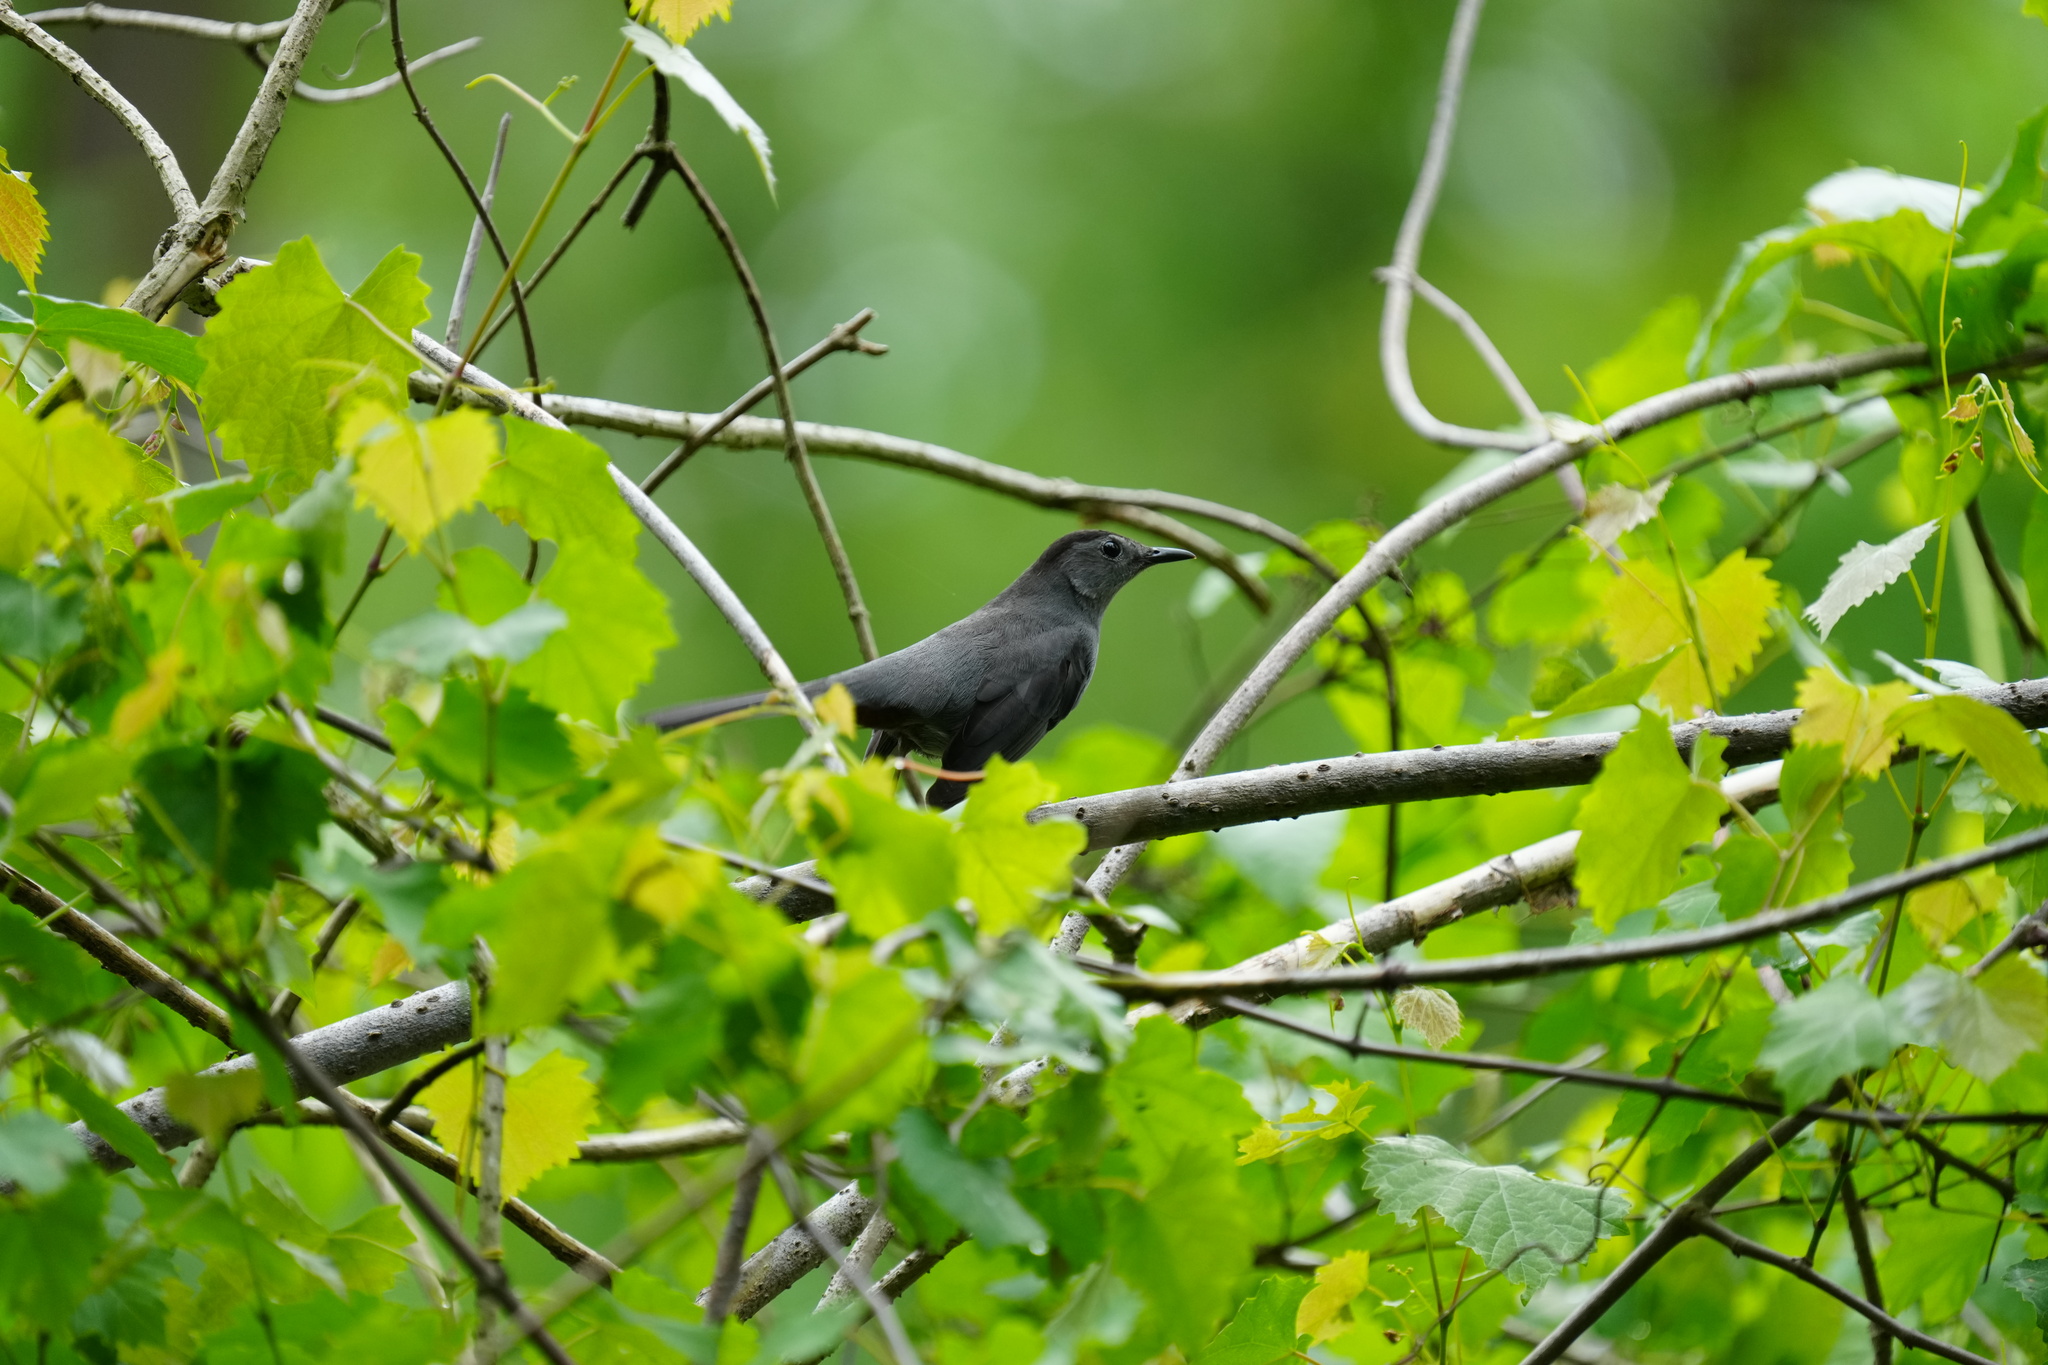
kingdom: Animalia
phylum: Chordata
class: Aves
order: Passeriformes
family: Mimidae
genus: Dumetella
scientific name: Dumetella carolinensis
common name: Gray catbird
